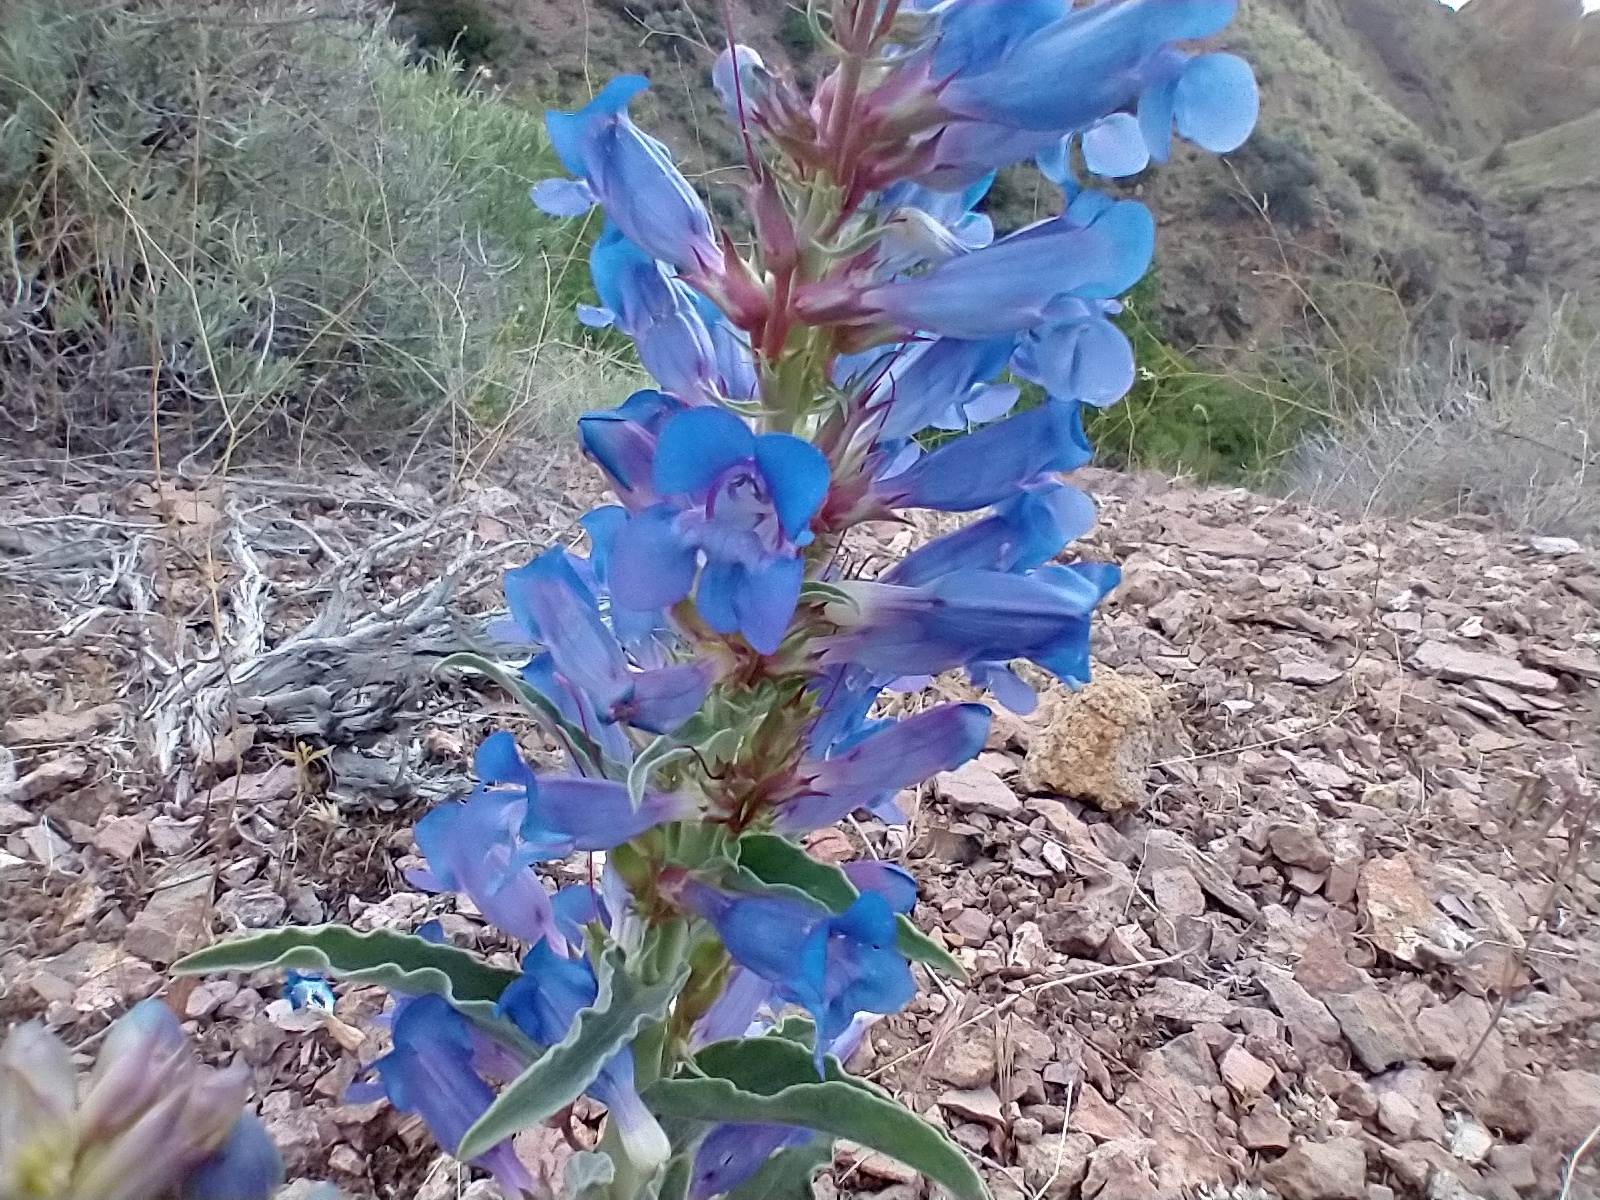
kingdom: Plantae
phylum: Tracheophyta
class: Magnoliopsida
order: Lamiales
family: Plantaginaceae
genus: Penstemon
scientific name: Penstemon speciosus
